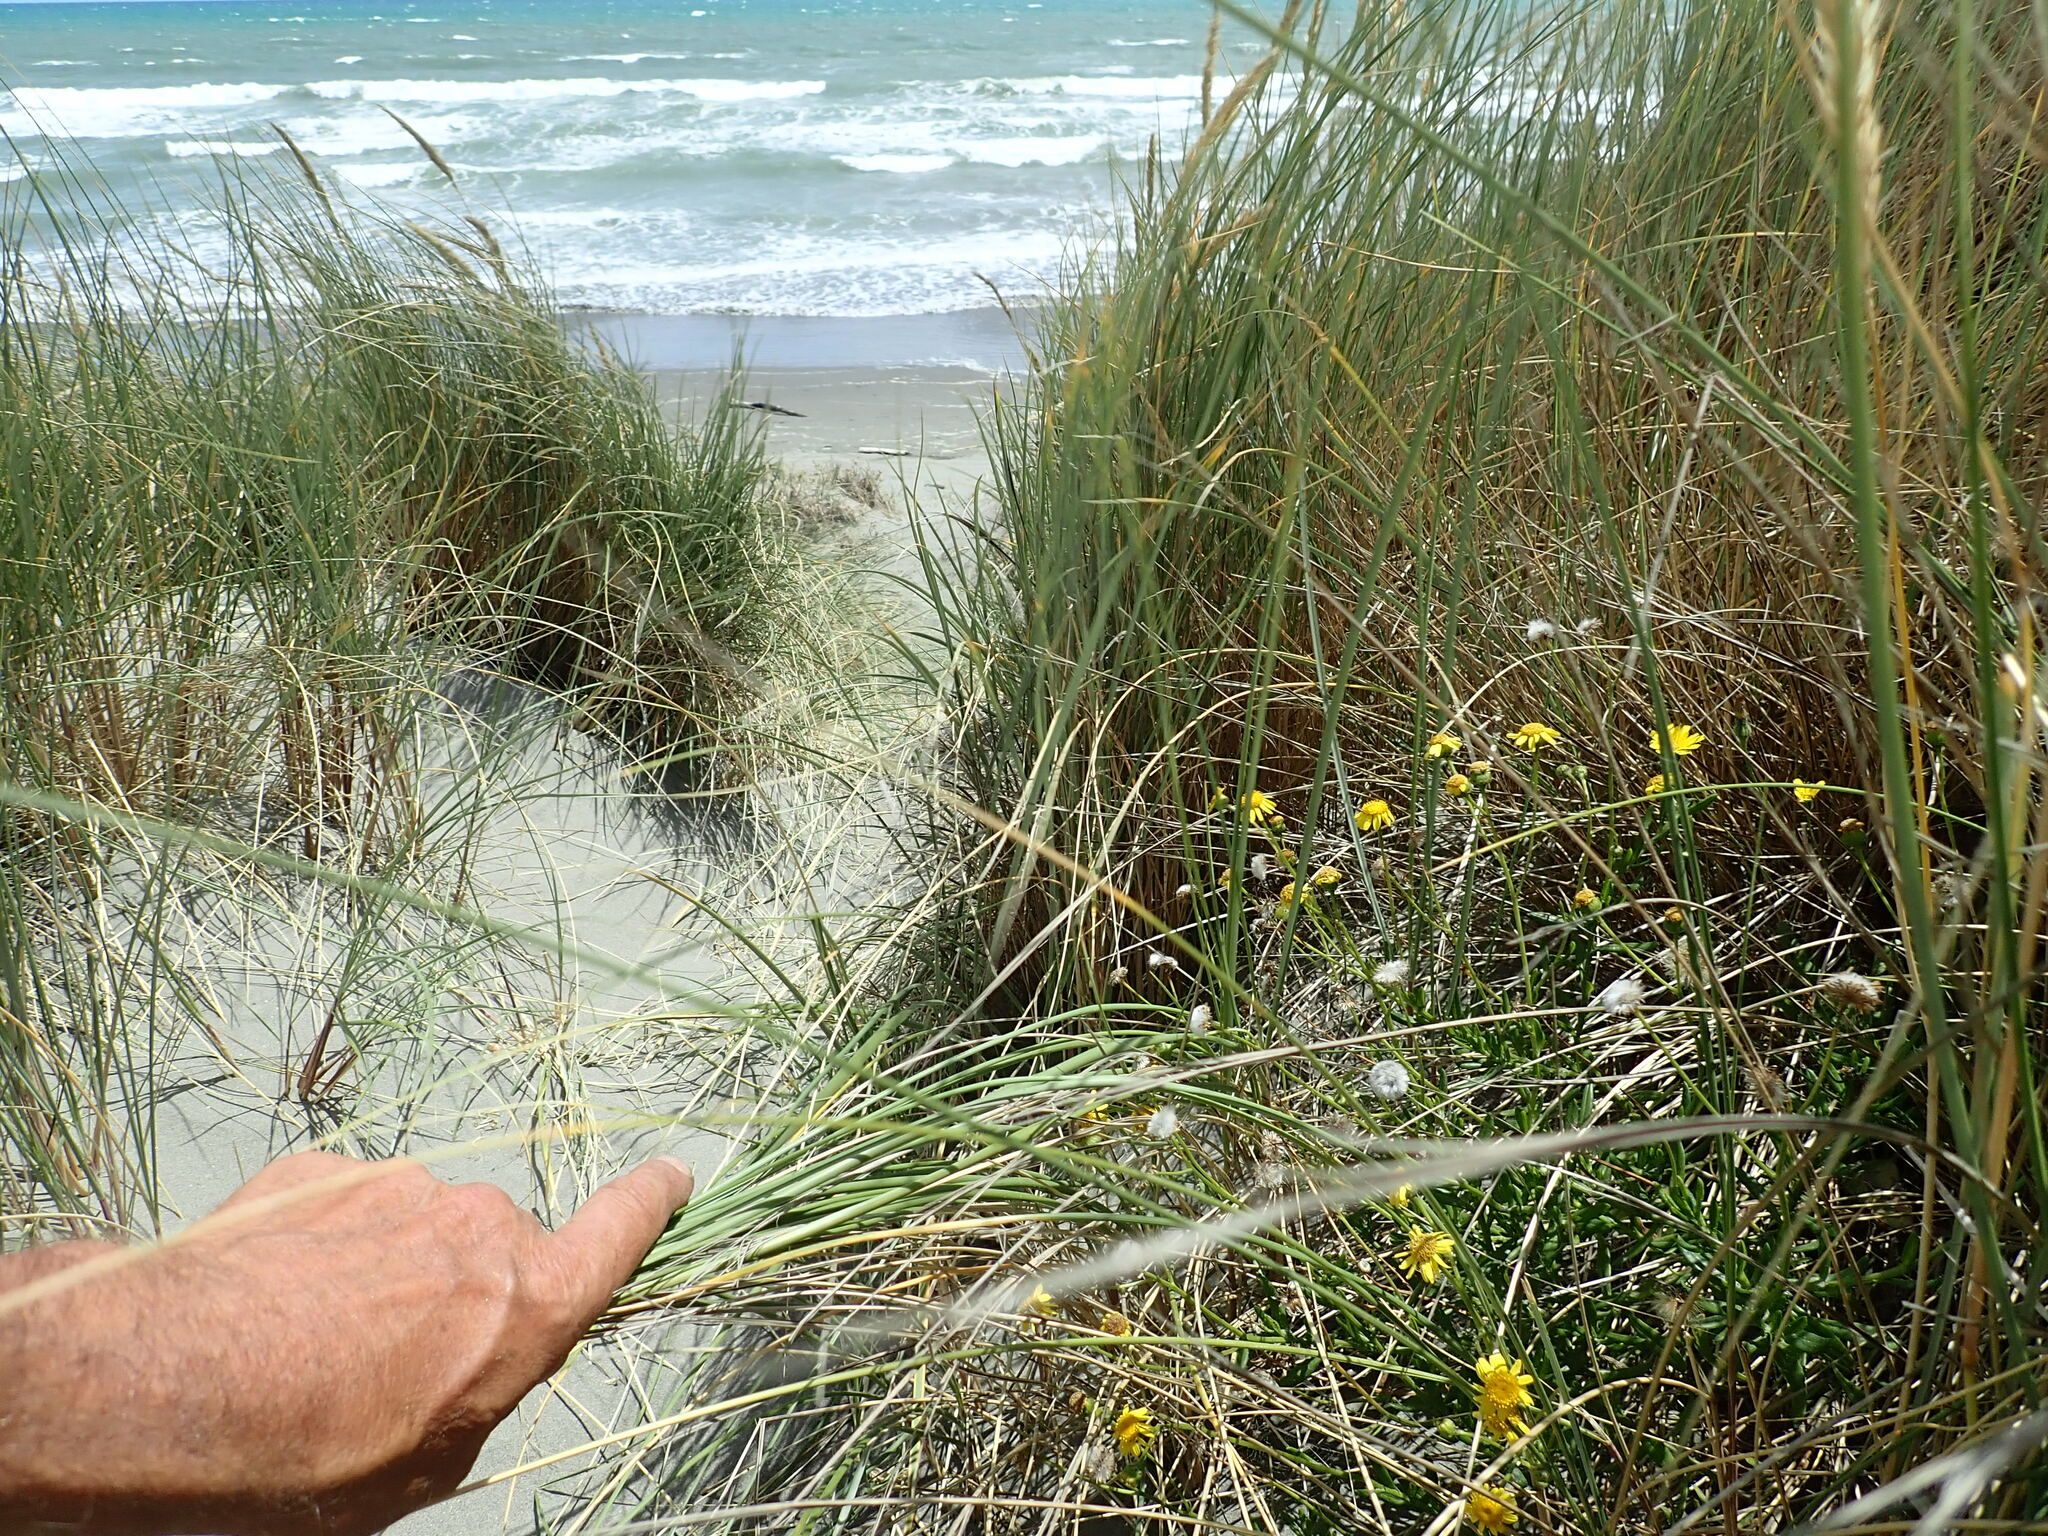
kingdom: Plantae
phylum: Tracheophyta
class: Magnoliopsida
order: Asterales
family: Asteraceae
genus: Senecio
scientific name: Senecio skirrhodon
